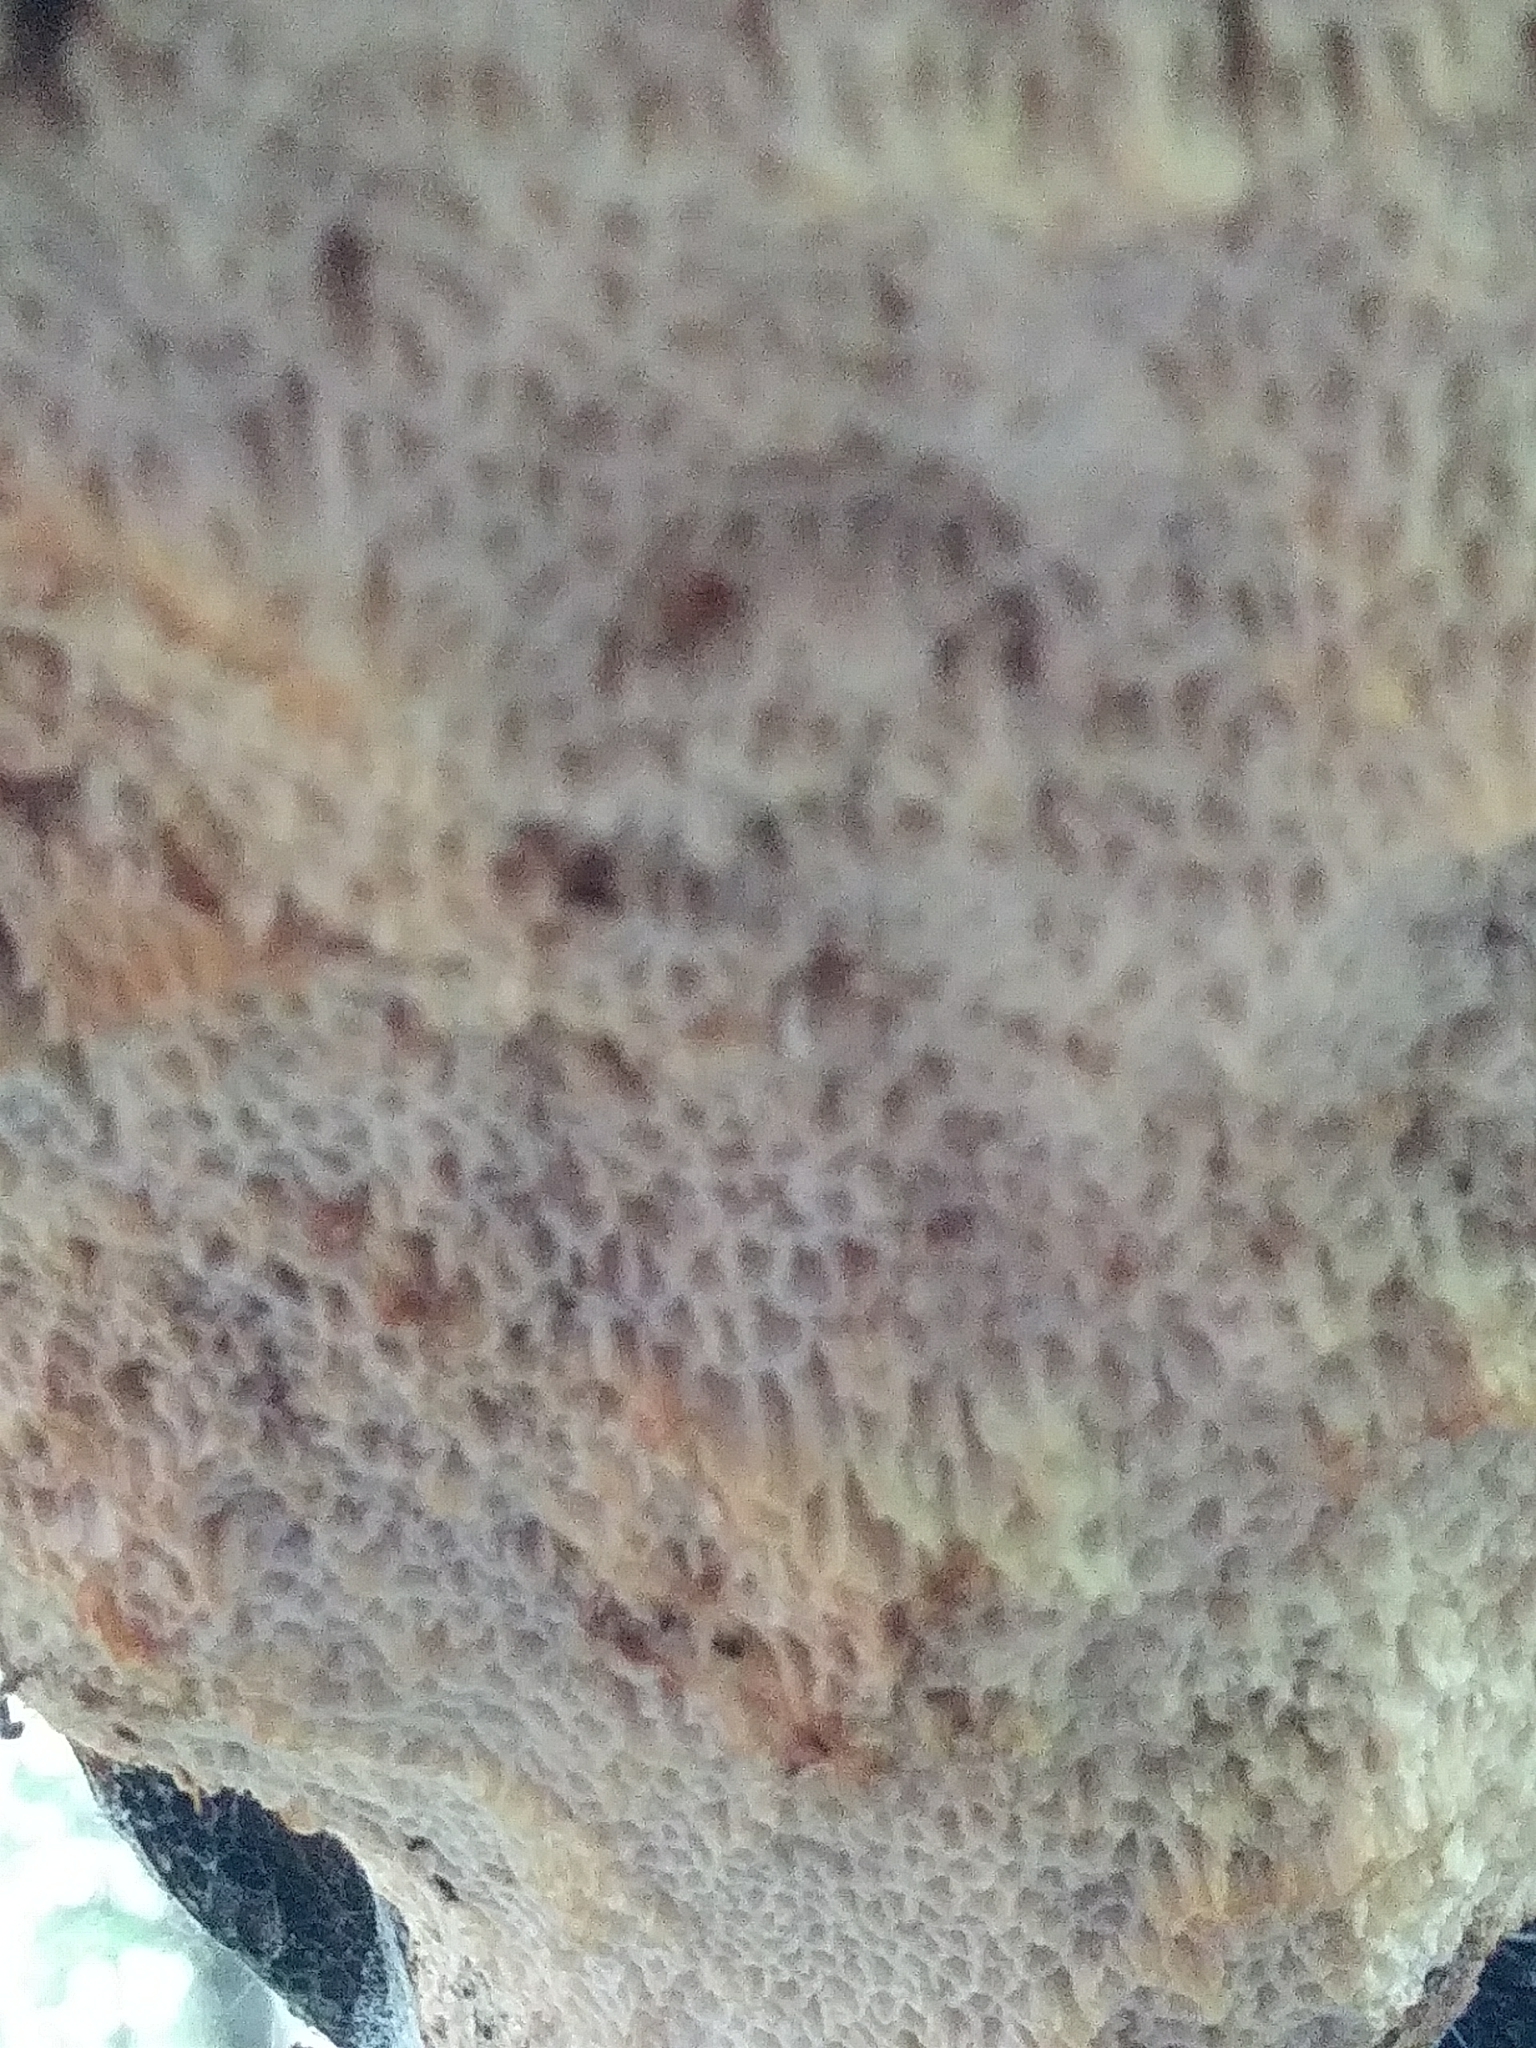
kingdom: Fungi
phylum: Basidiomycota
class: Agaricomycetes
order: Polyporales
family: Polyporaceae
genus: Cerioporus
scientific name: Cerioporus squamosus
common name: Dryad's saddle
